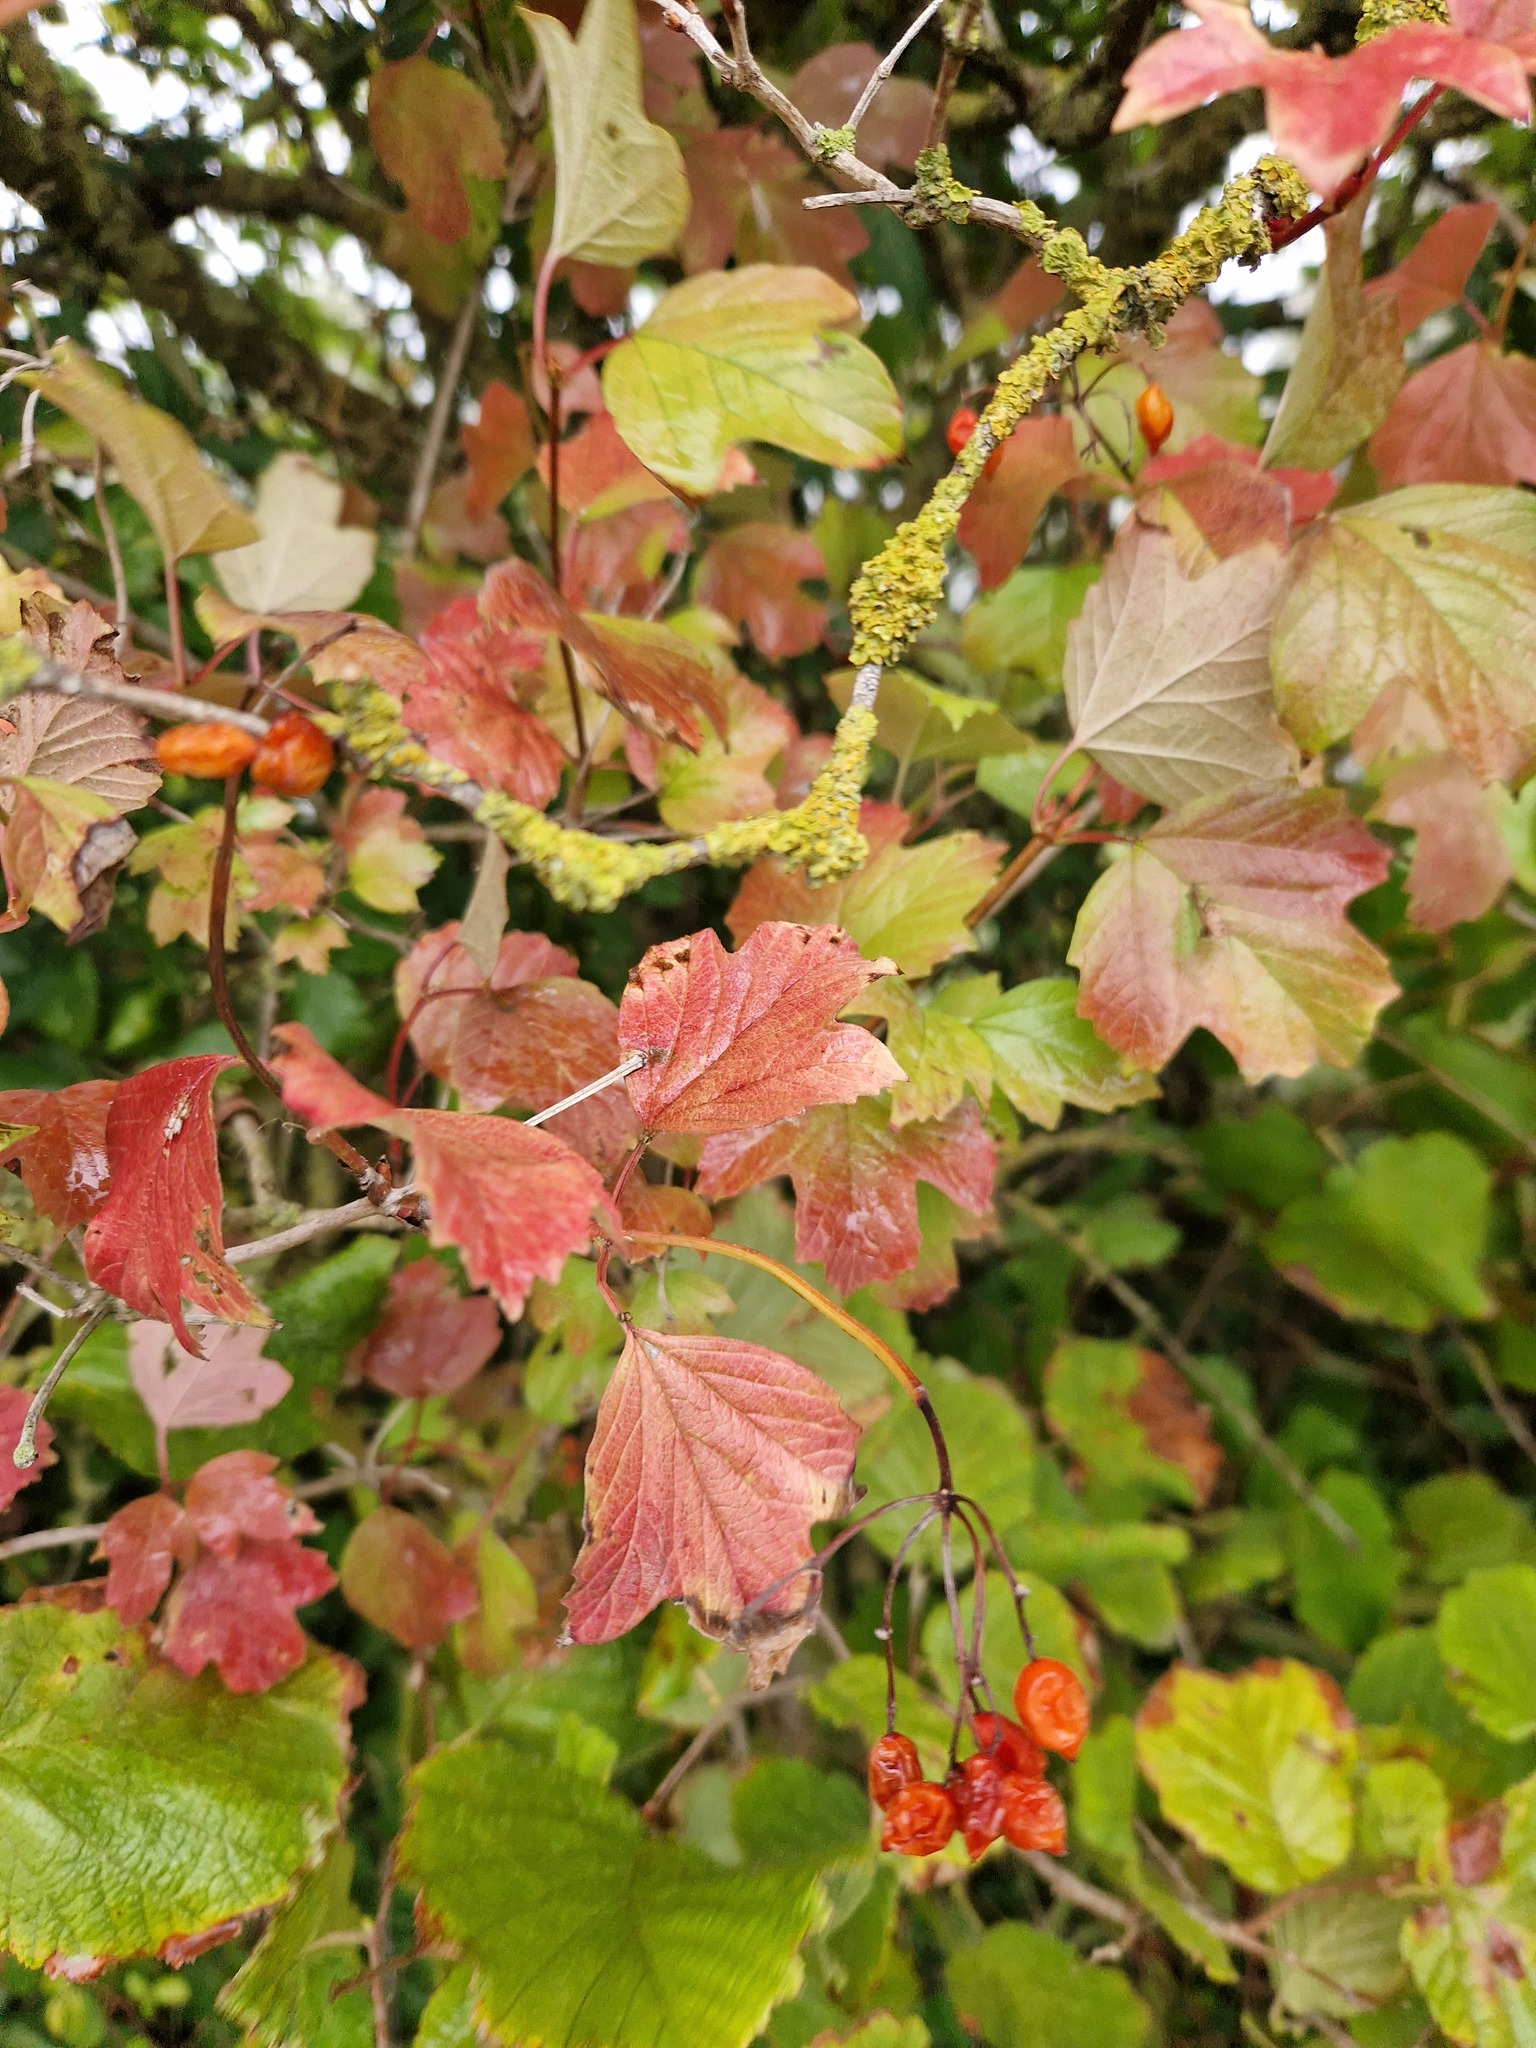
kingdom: Plantae
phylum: Tracheophyta
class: Magnoliopsida
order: Dipsacales
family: Viburnaceae
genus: Viburnum
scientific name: Viburnum opulus
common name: Guelder-rose
